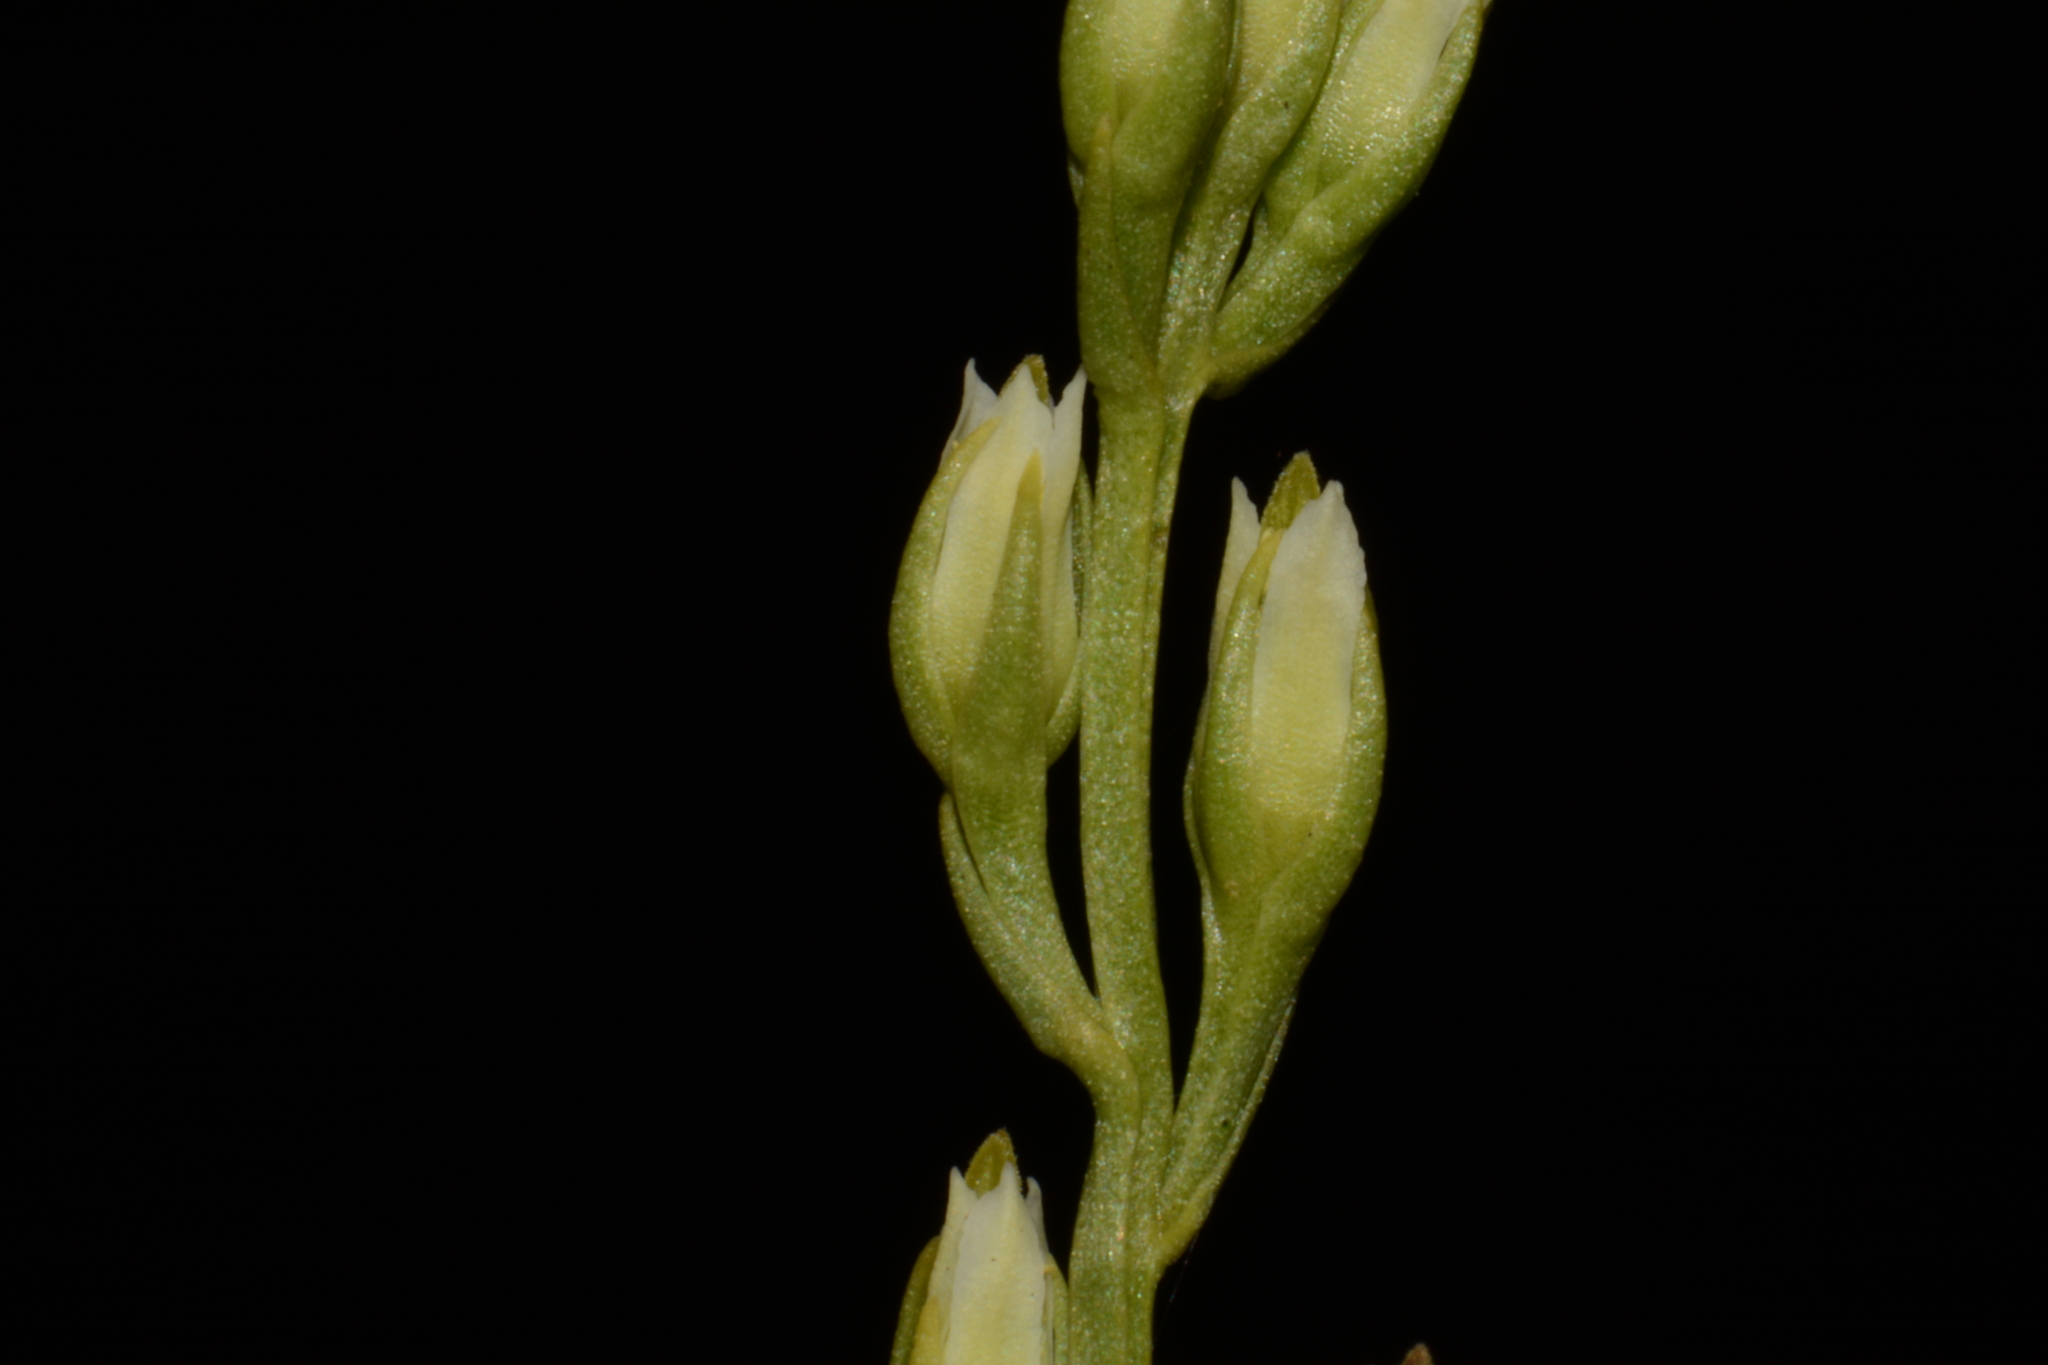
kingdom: Plantae
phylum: Tracheophyta
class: Magnoliopsida
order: Gentianales
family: Gentianaceae
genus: Bartonia
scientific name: Bartonia virginica
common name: Yellow bartonia
